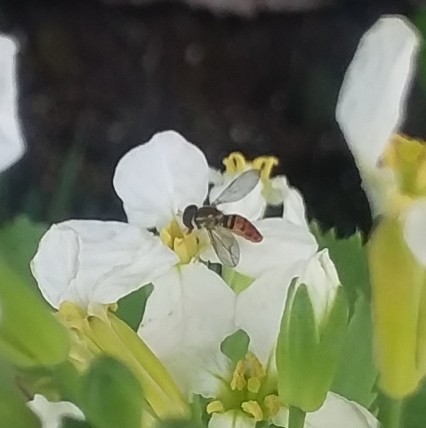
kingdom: Animalia
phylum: Arthropoda
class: Insecta
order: Diptera
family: Syrphidae
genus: Toxomerus
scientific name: Toxomerus marginatus
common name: Syrphid fly
